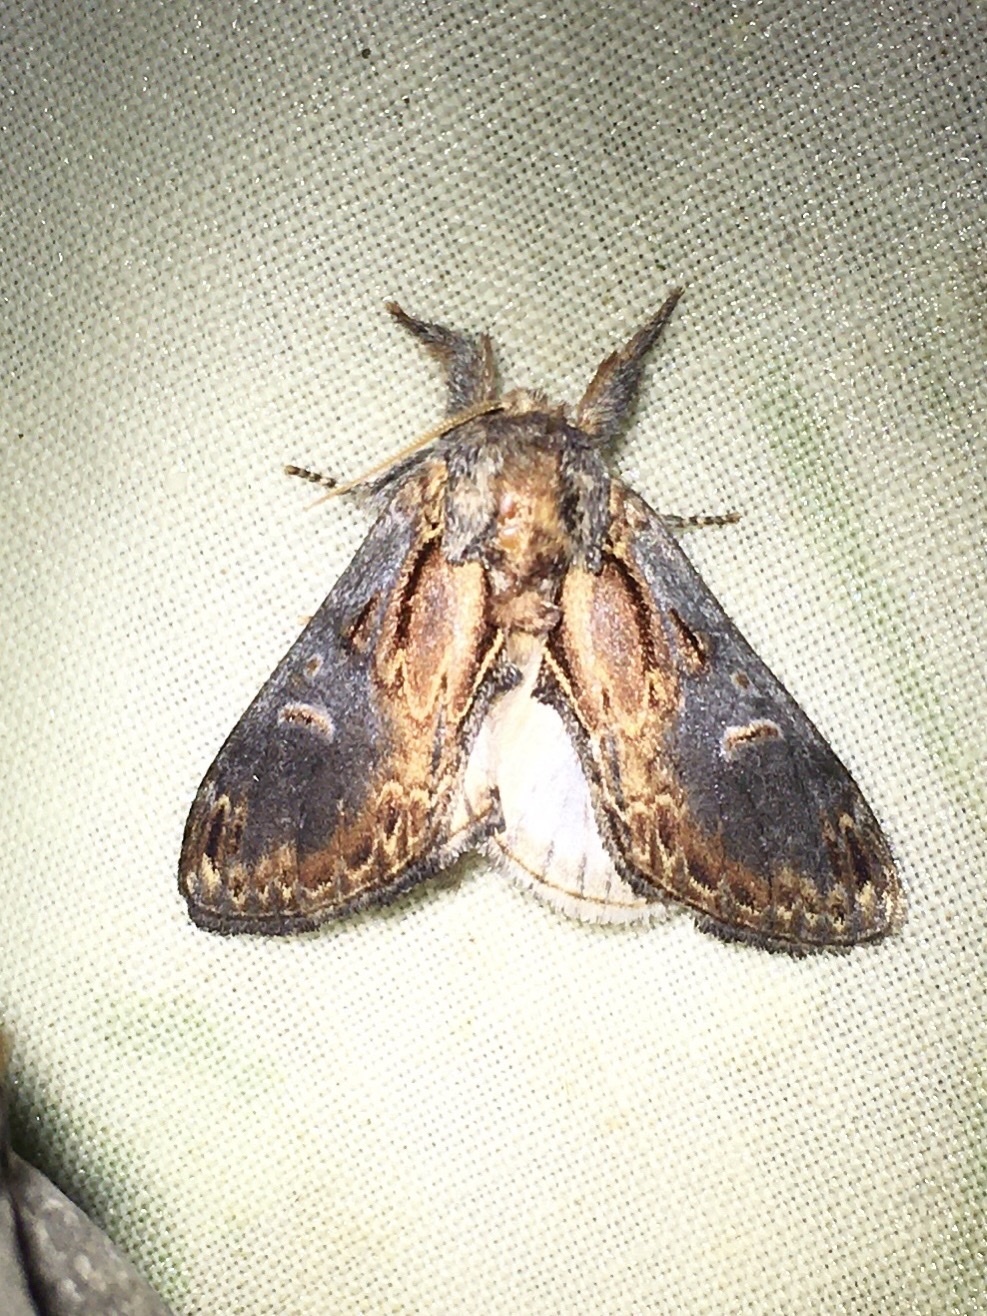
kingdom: Animalia
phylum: Arthropoda
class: Insecta
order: Lepidoptera
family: Notodontidae
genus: Notodonta
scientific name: Notodonta scitipennis
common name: Finned-willow prominent moth
